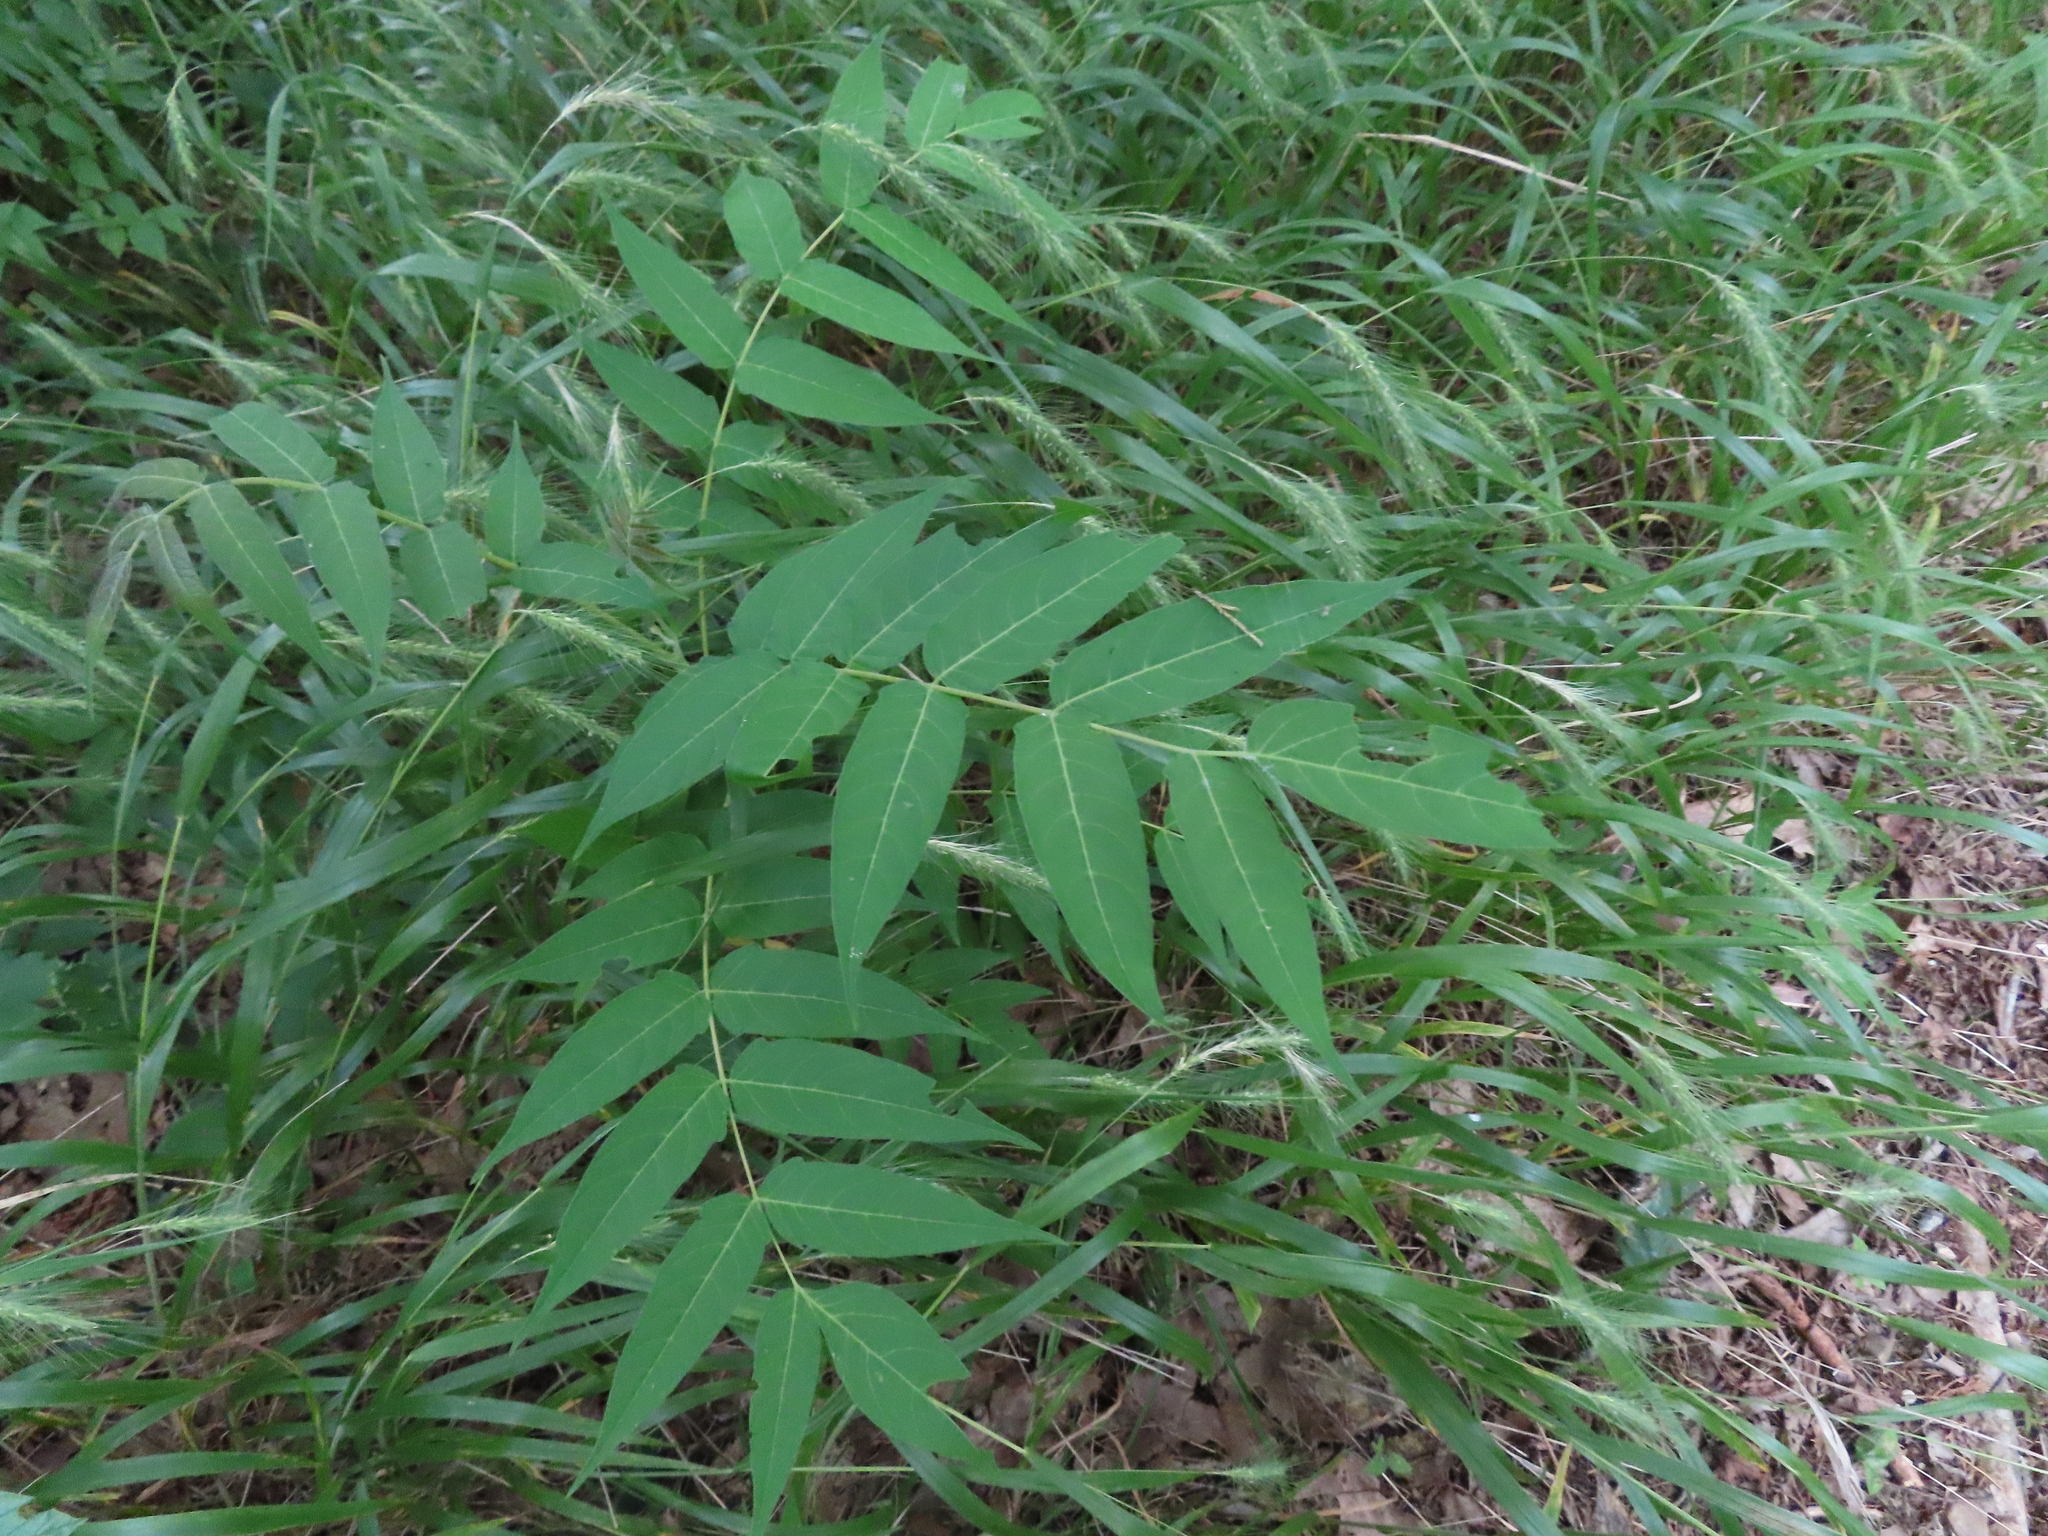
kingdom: Plantae
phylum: Tracheophyta
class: Magnoliopsida
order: Sapindales
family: Simaroubaceae
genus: Ailanthus
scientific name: Ailanthus altissima
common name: Tree-of-heaven
